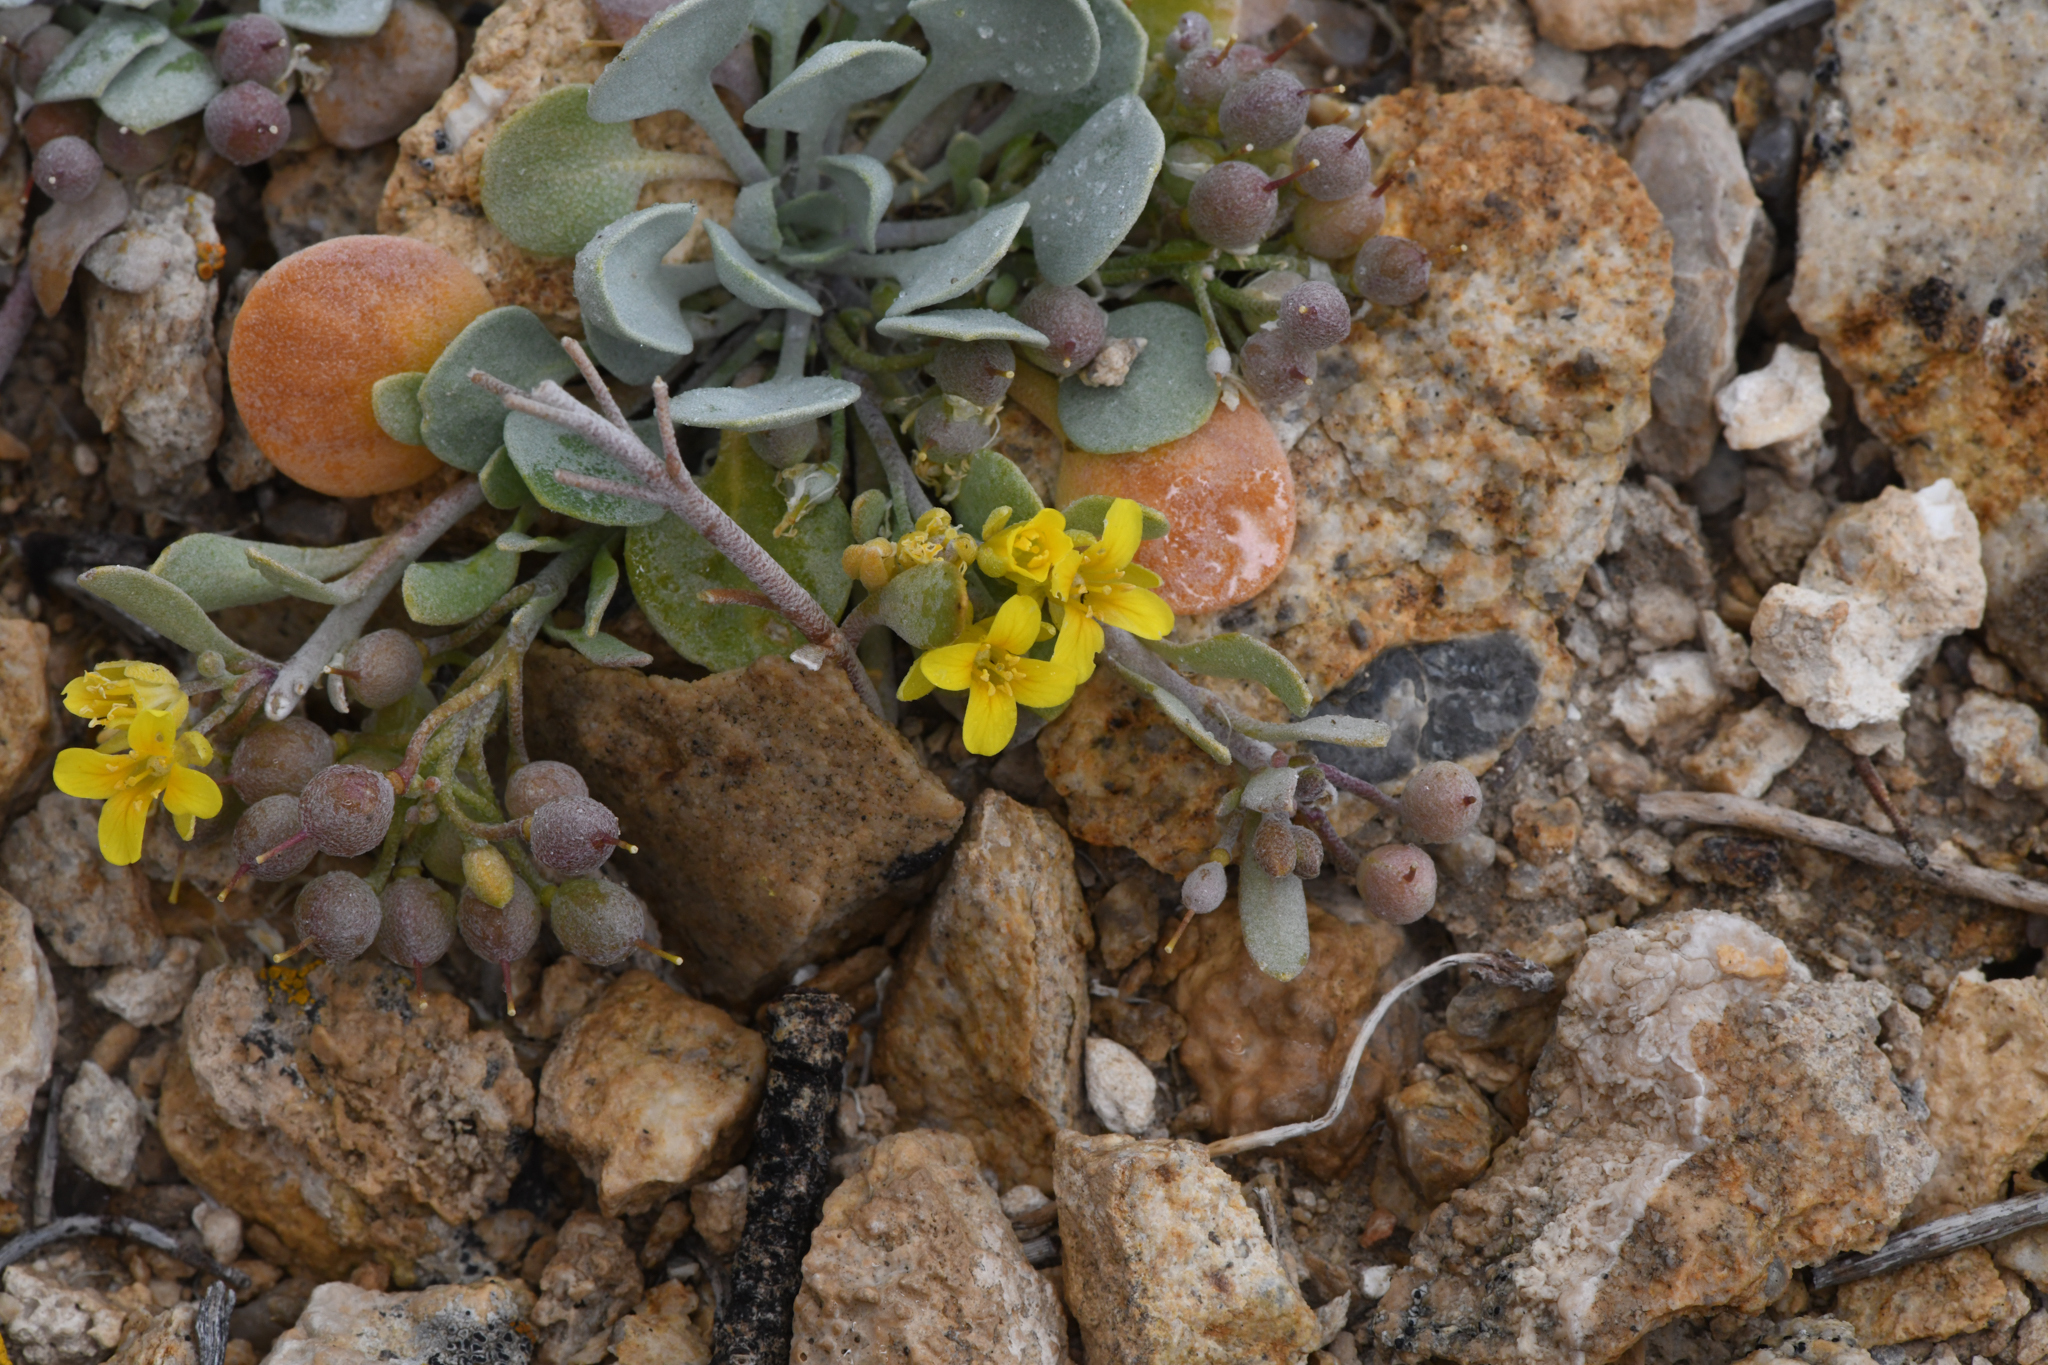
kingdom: Plantae
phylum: Tracheophyta
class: Magnoliopsida
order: Brassicales
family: Brassicaceae
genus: Physaria
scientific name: Physaria kingii
